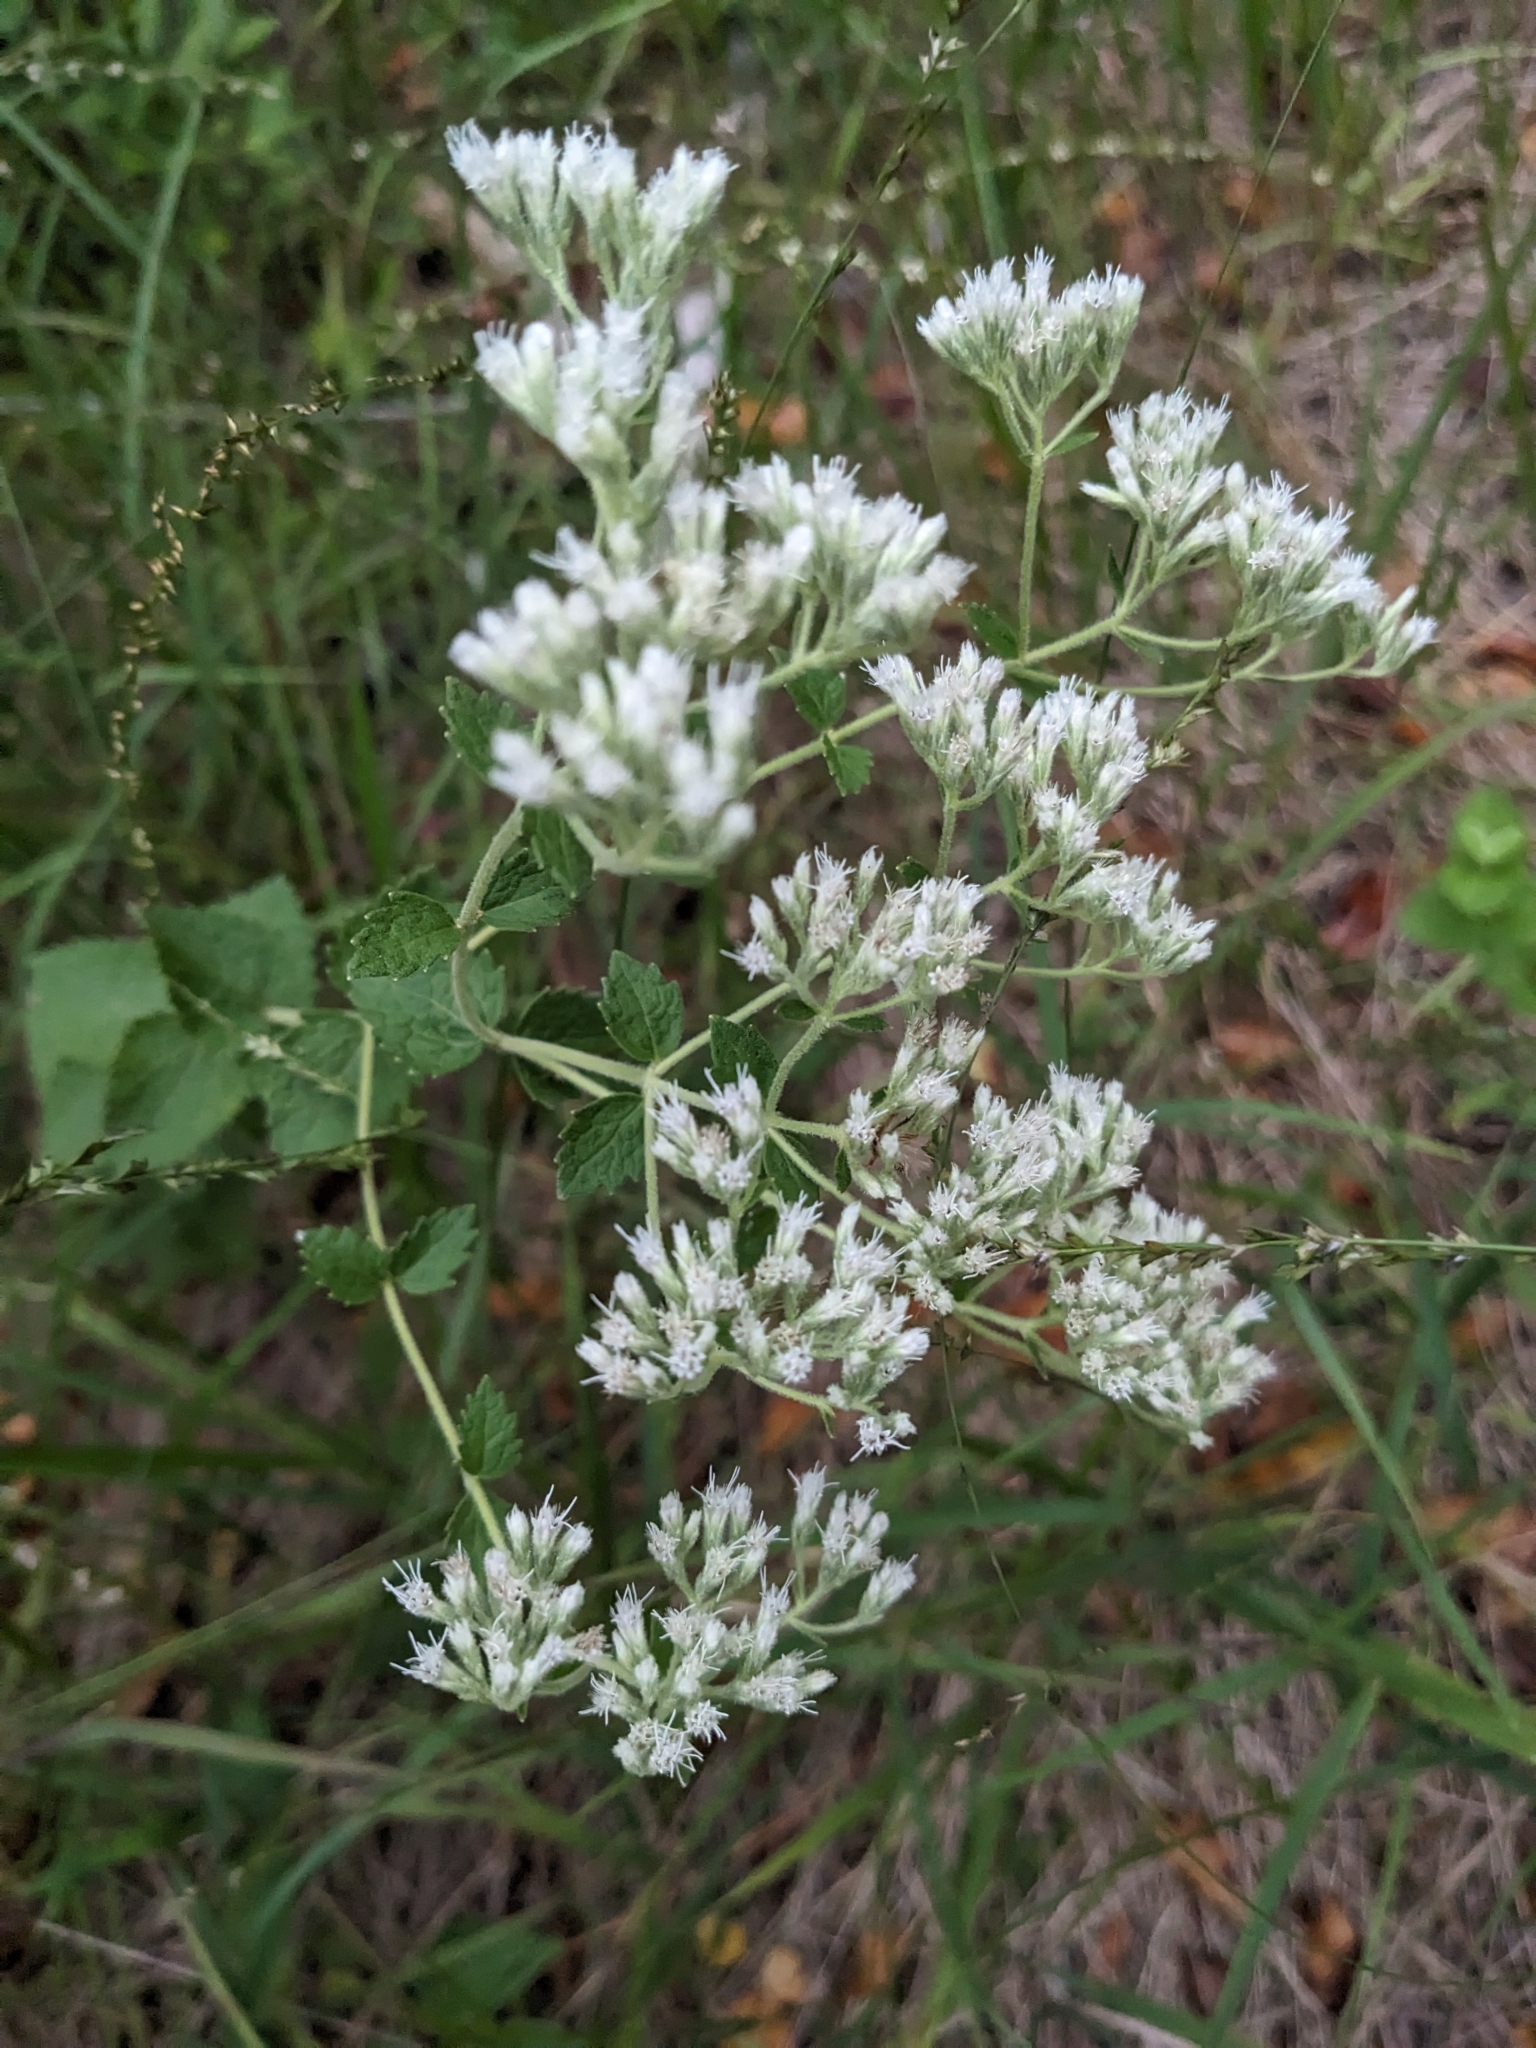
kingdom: Plantae
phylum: Tracheophyta
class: Magnoliopsida
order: Asterales
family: Asteraceae
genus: Eupatorium
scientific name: Eupatorium rotundifolium
